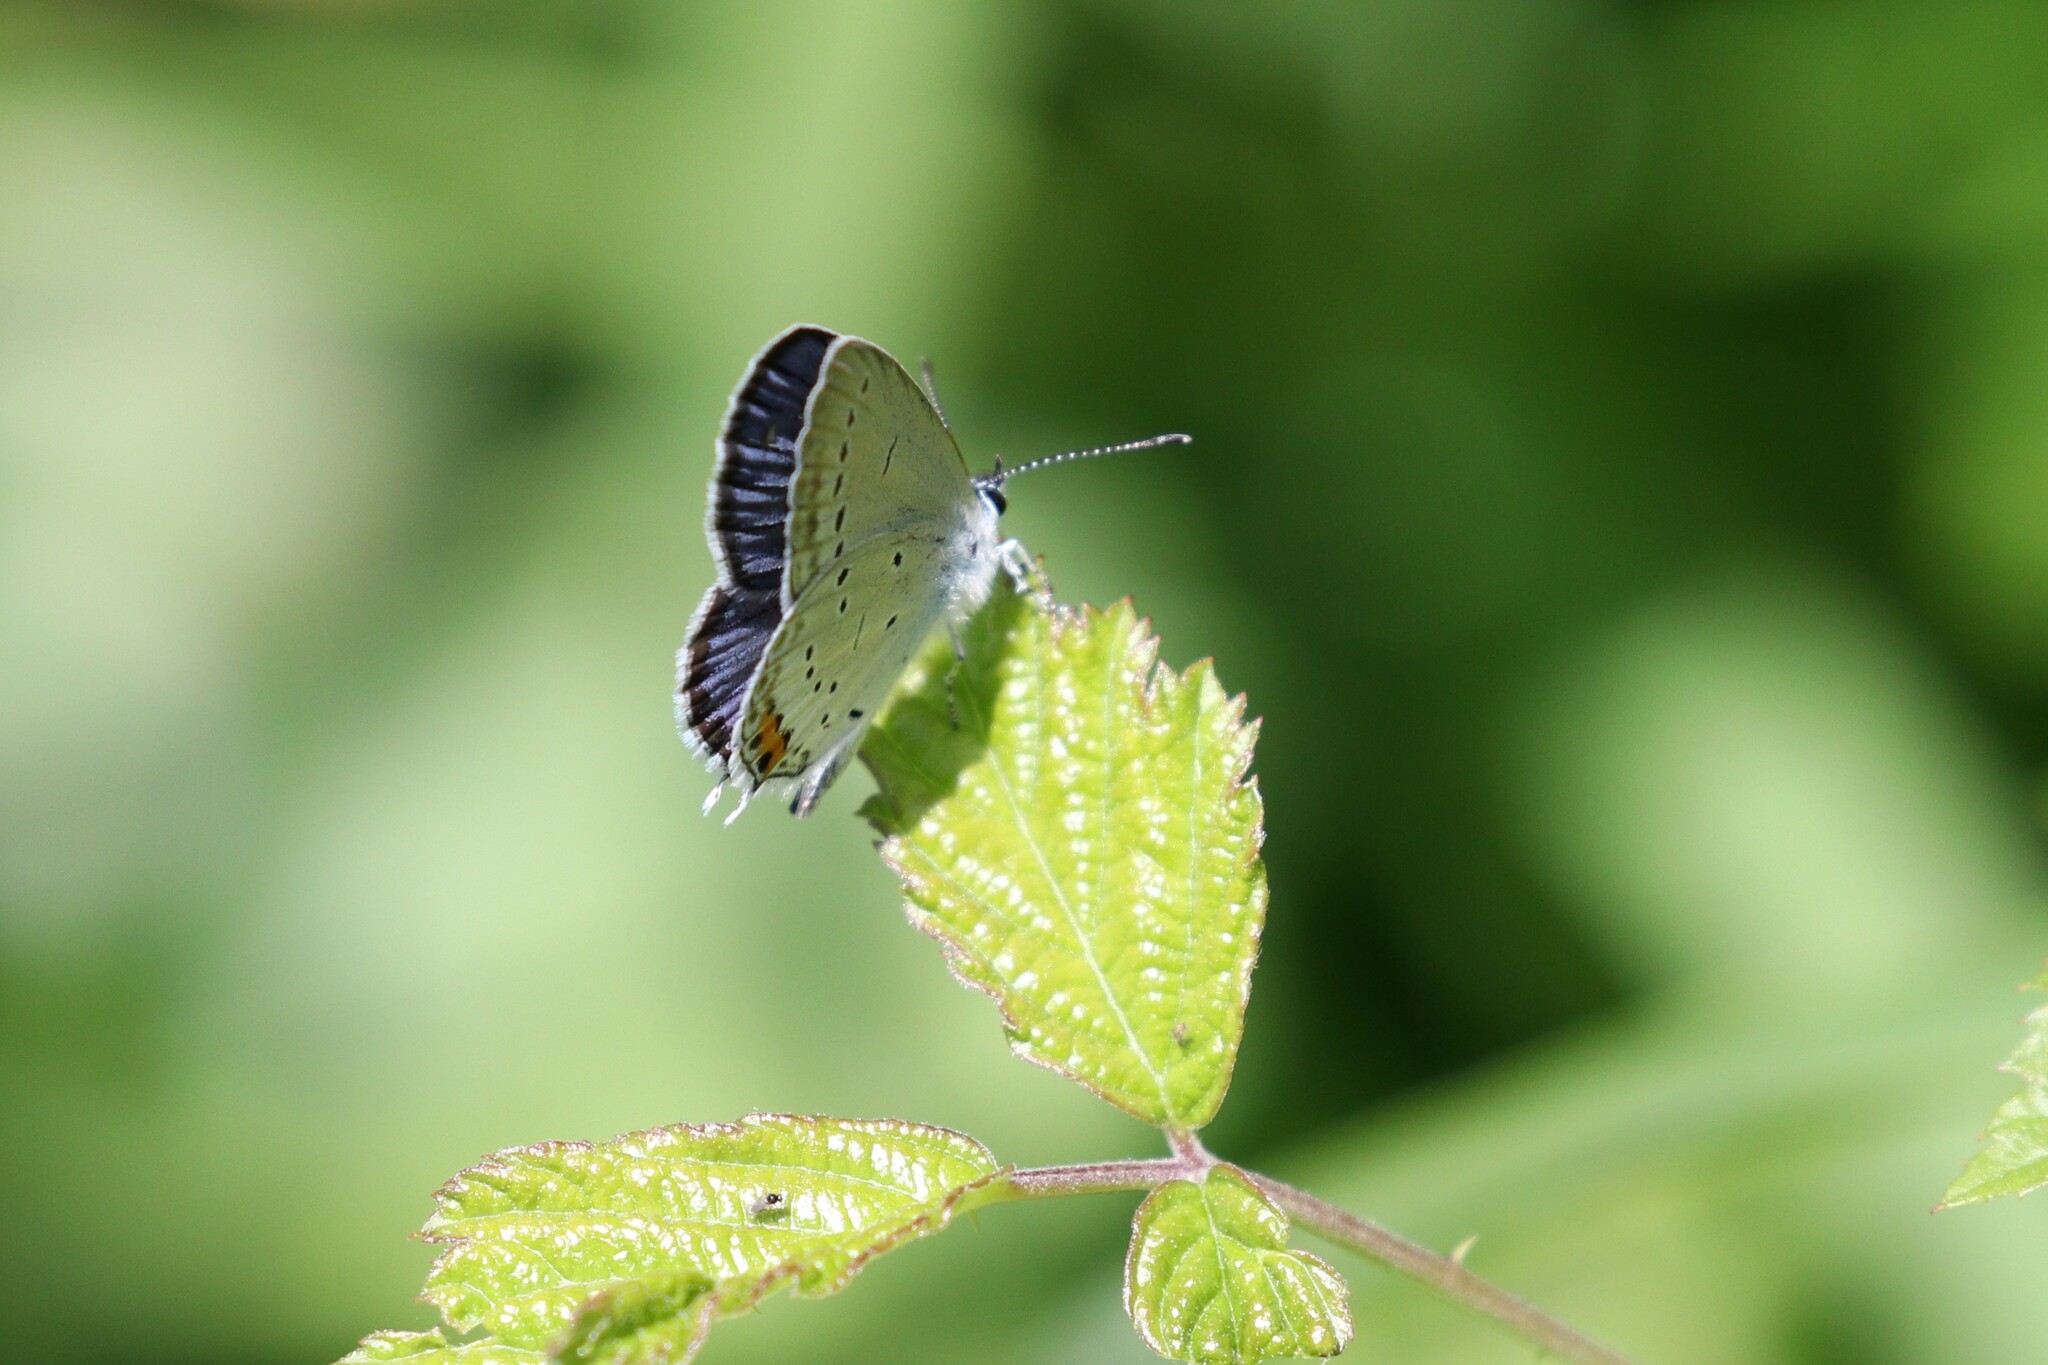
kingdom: Animalia
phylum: Arthropoda
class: Insecta
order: Lepidoptera
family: Lycaenidae
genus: Elkalyce
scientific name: Elkalyce argiades
